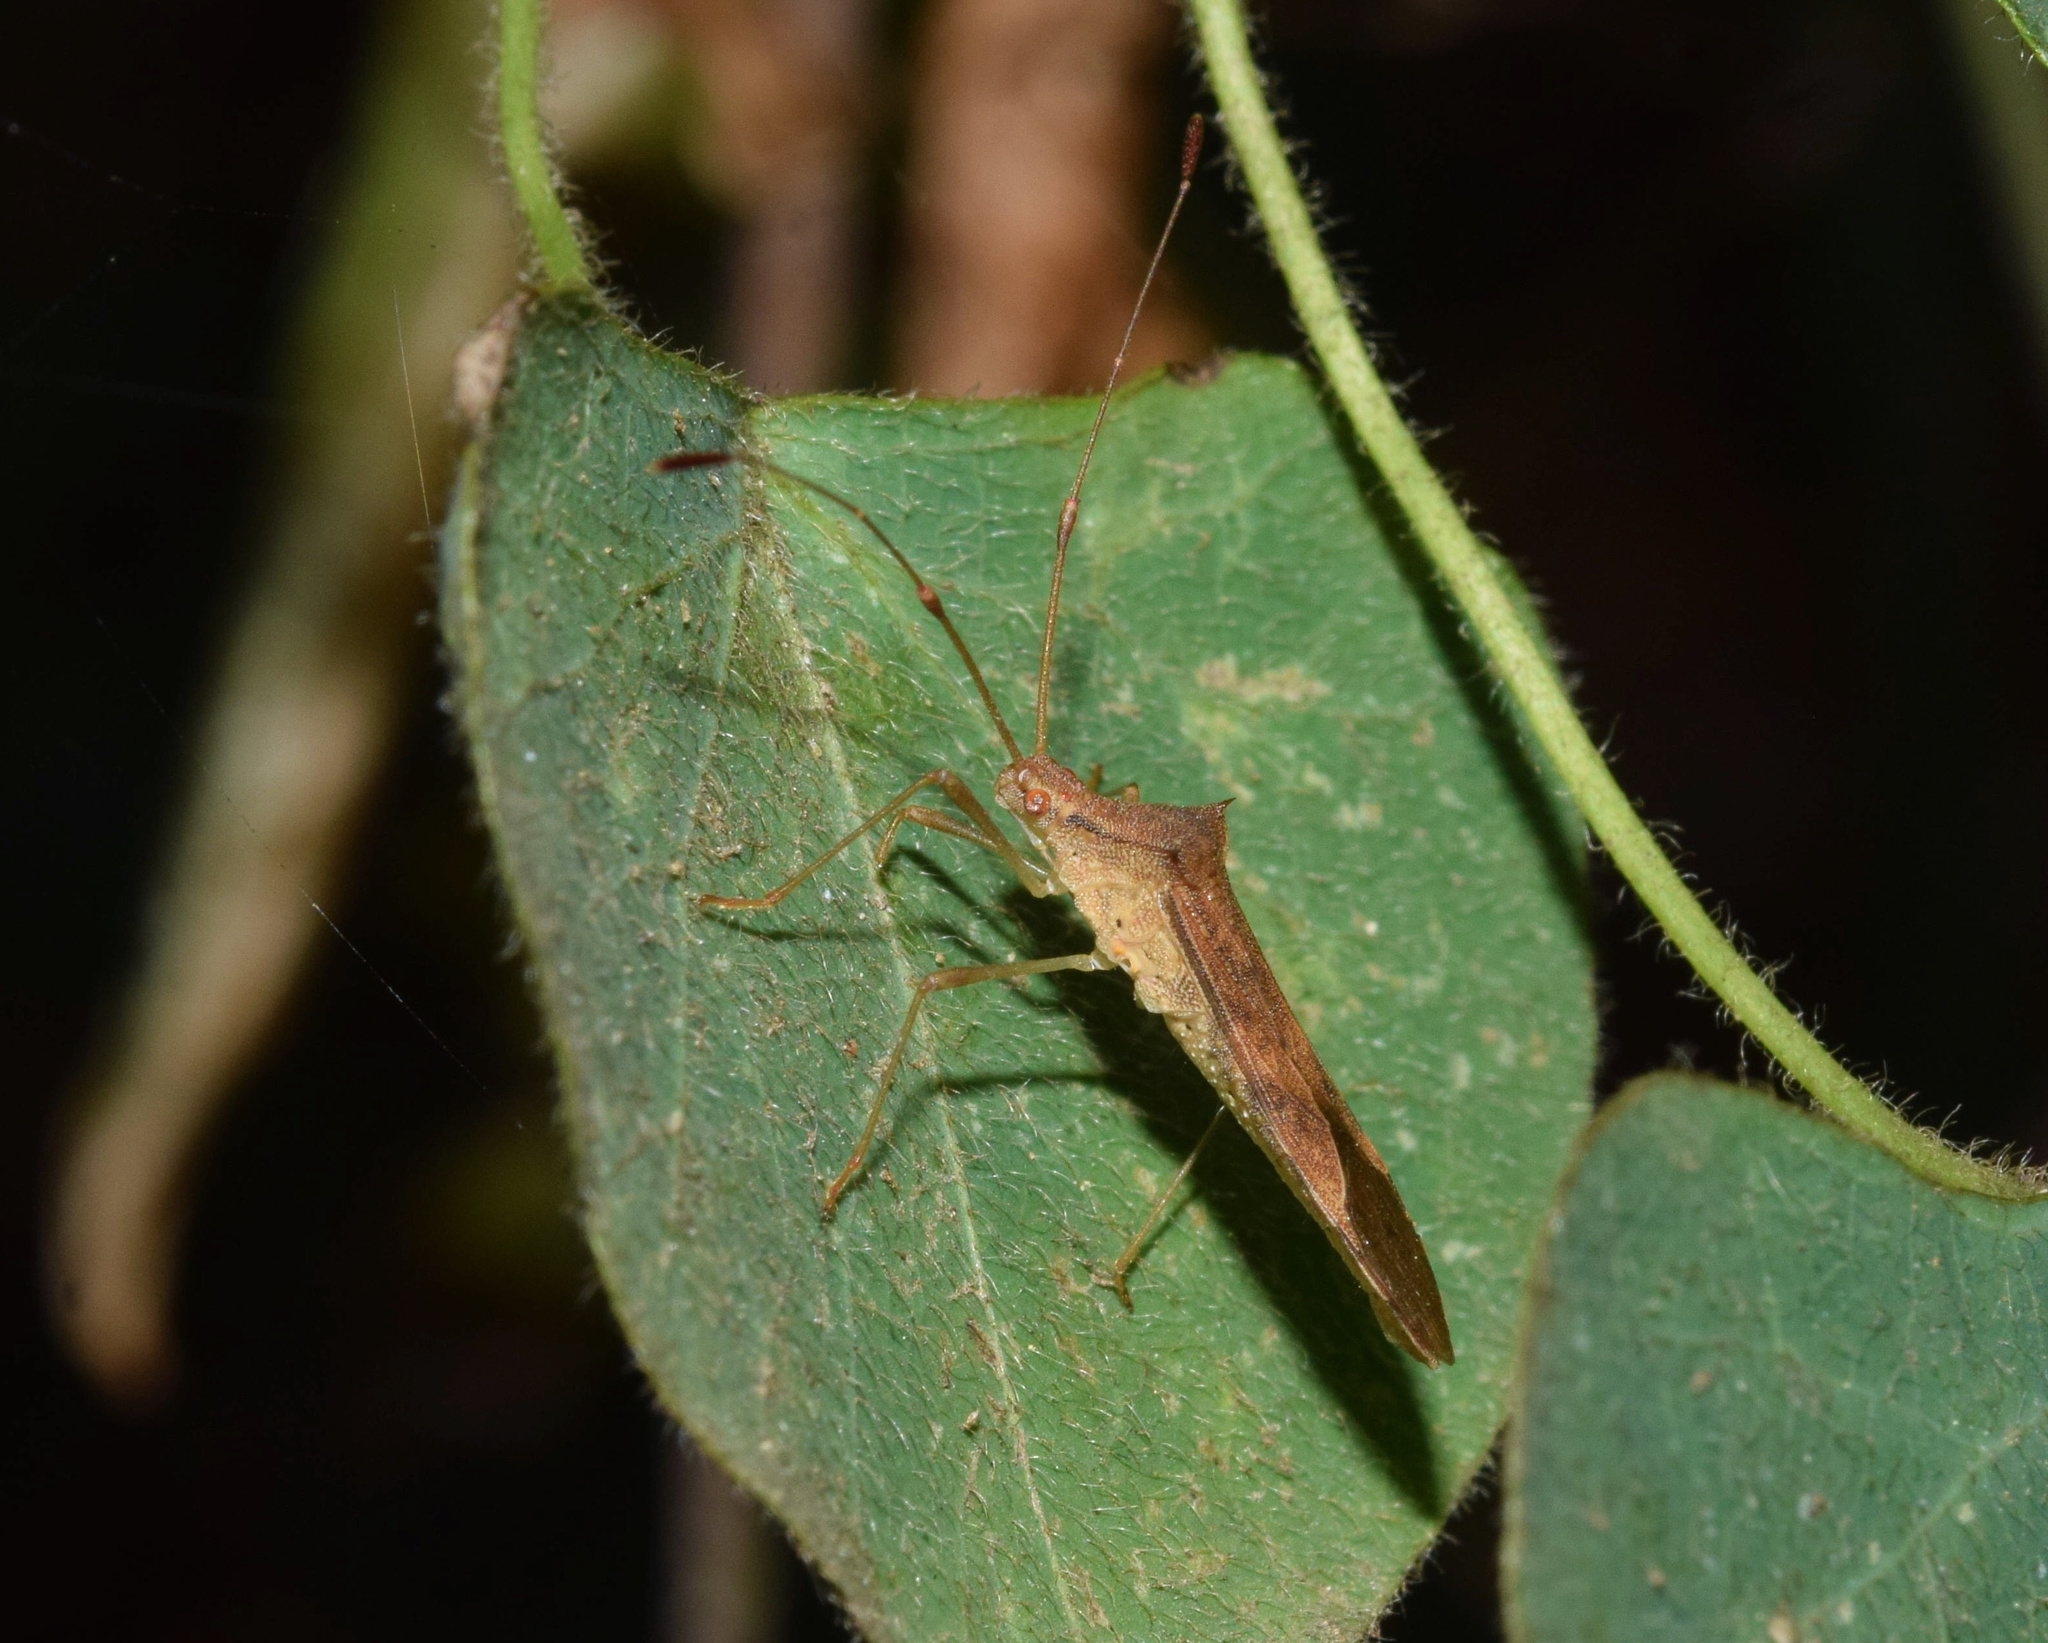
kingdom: Animalia
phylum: Arthropoda
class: Insecta
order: Hemiptera
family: Coreidae
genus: Hydara
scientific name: Hydara tenuicornis
